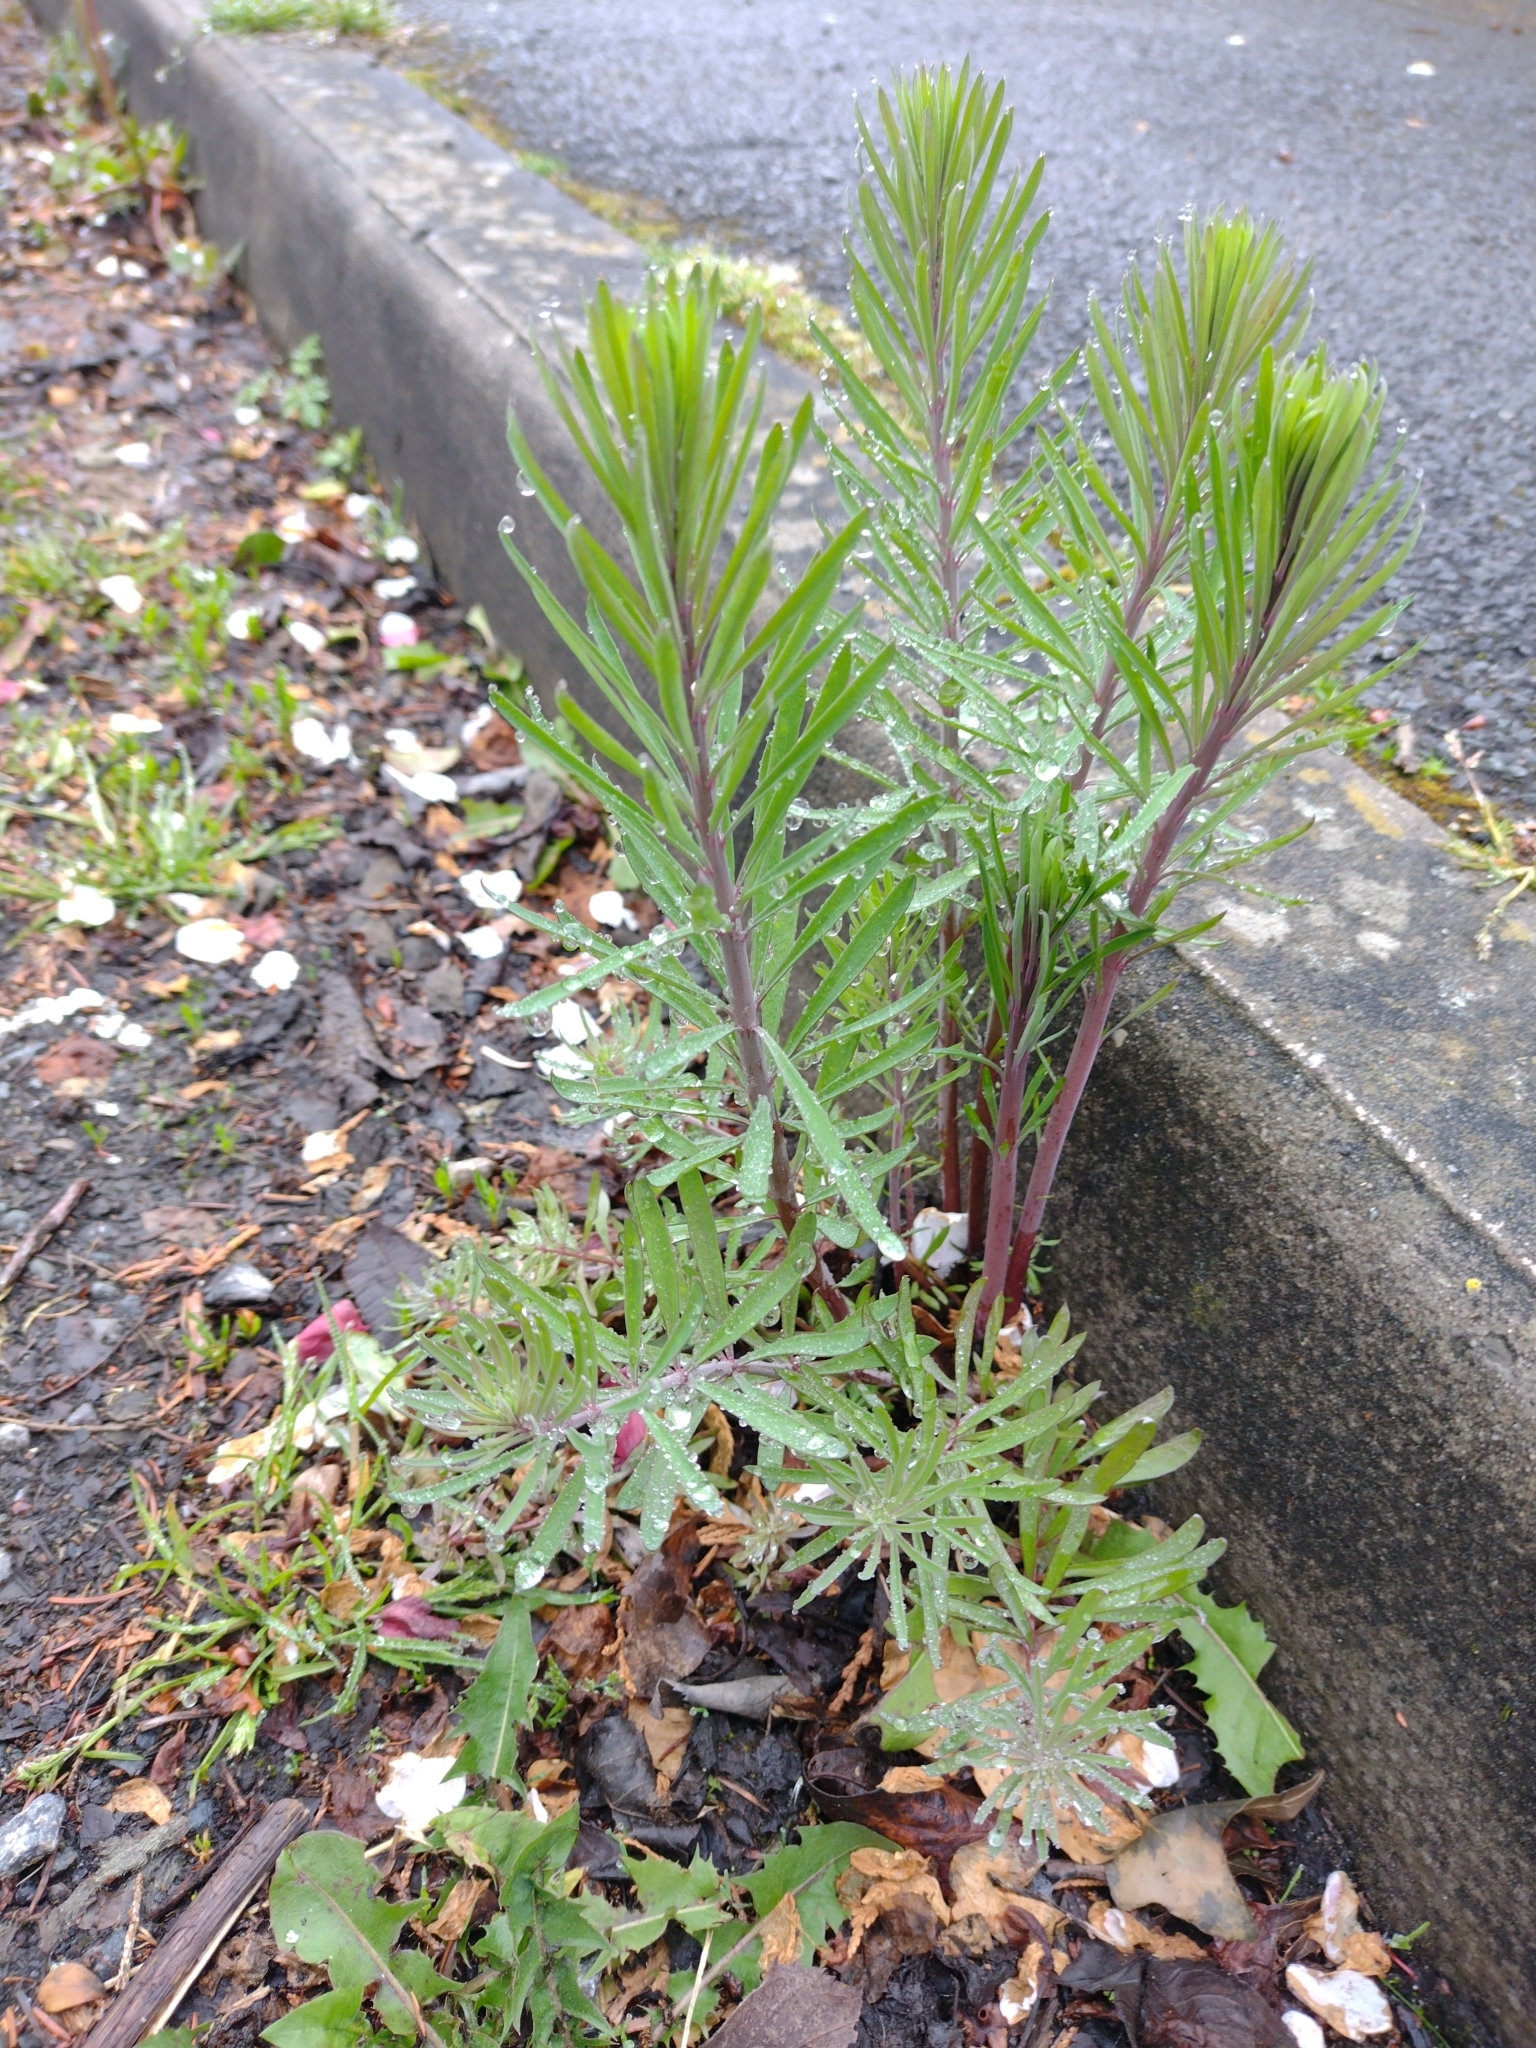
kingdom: Plantae
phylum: Tracheophyta
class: Magnoliopsida
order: Lamiales
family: Plantaginaceae
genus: Linaria
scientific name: Linaria purpurea
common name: Purple toadflax
